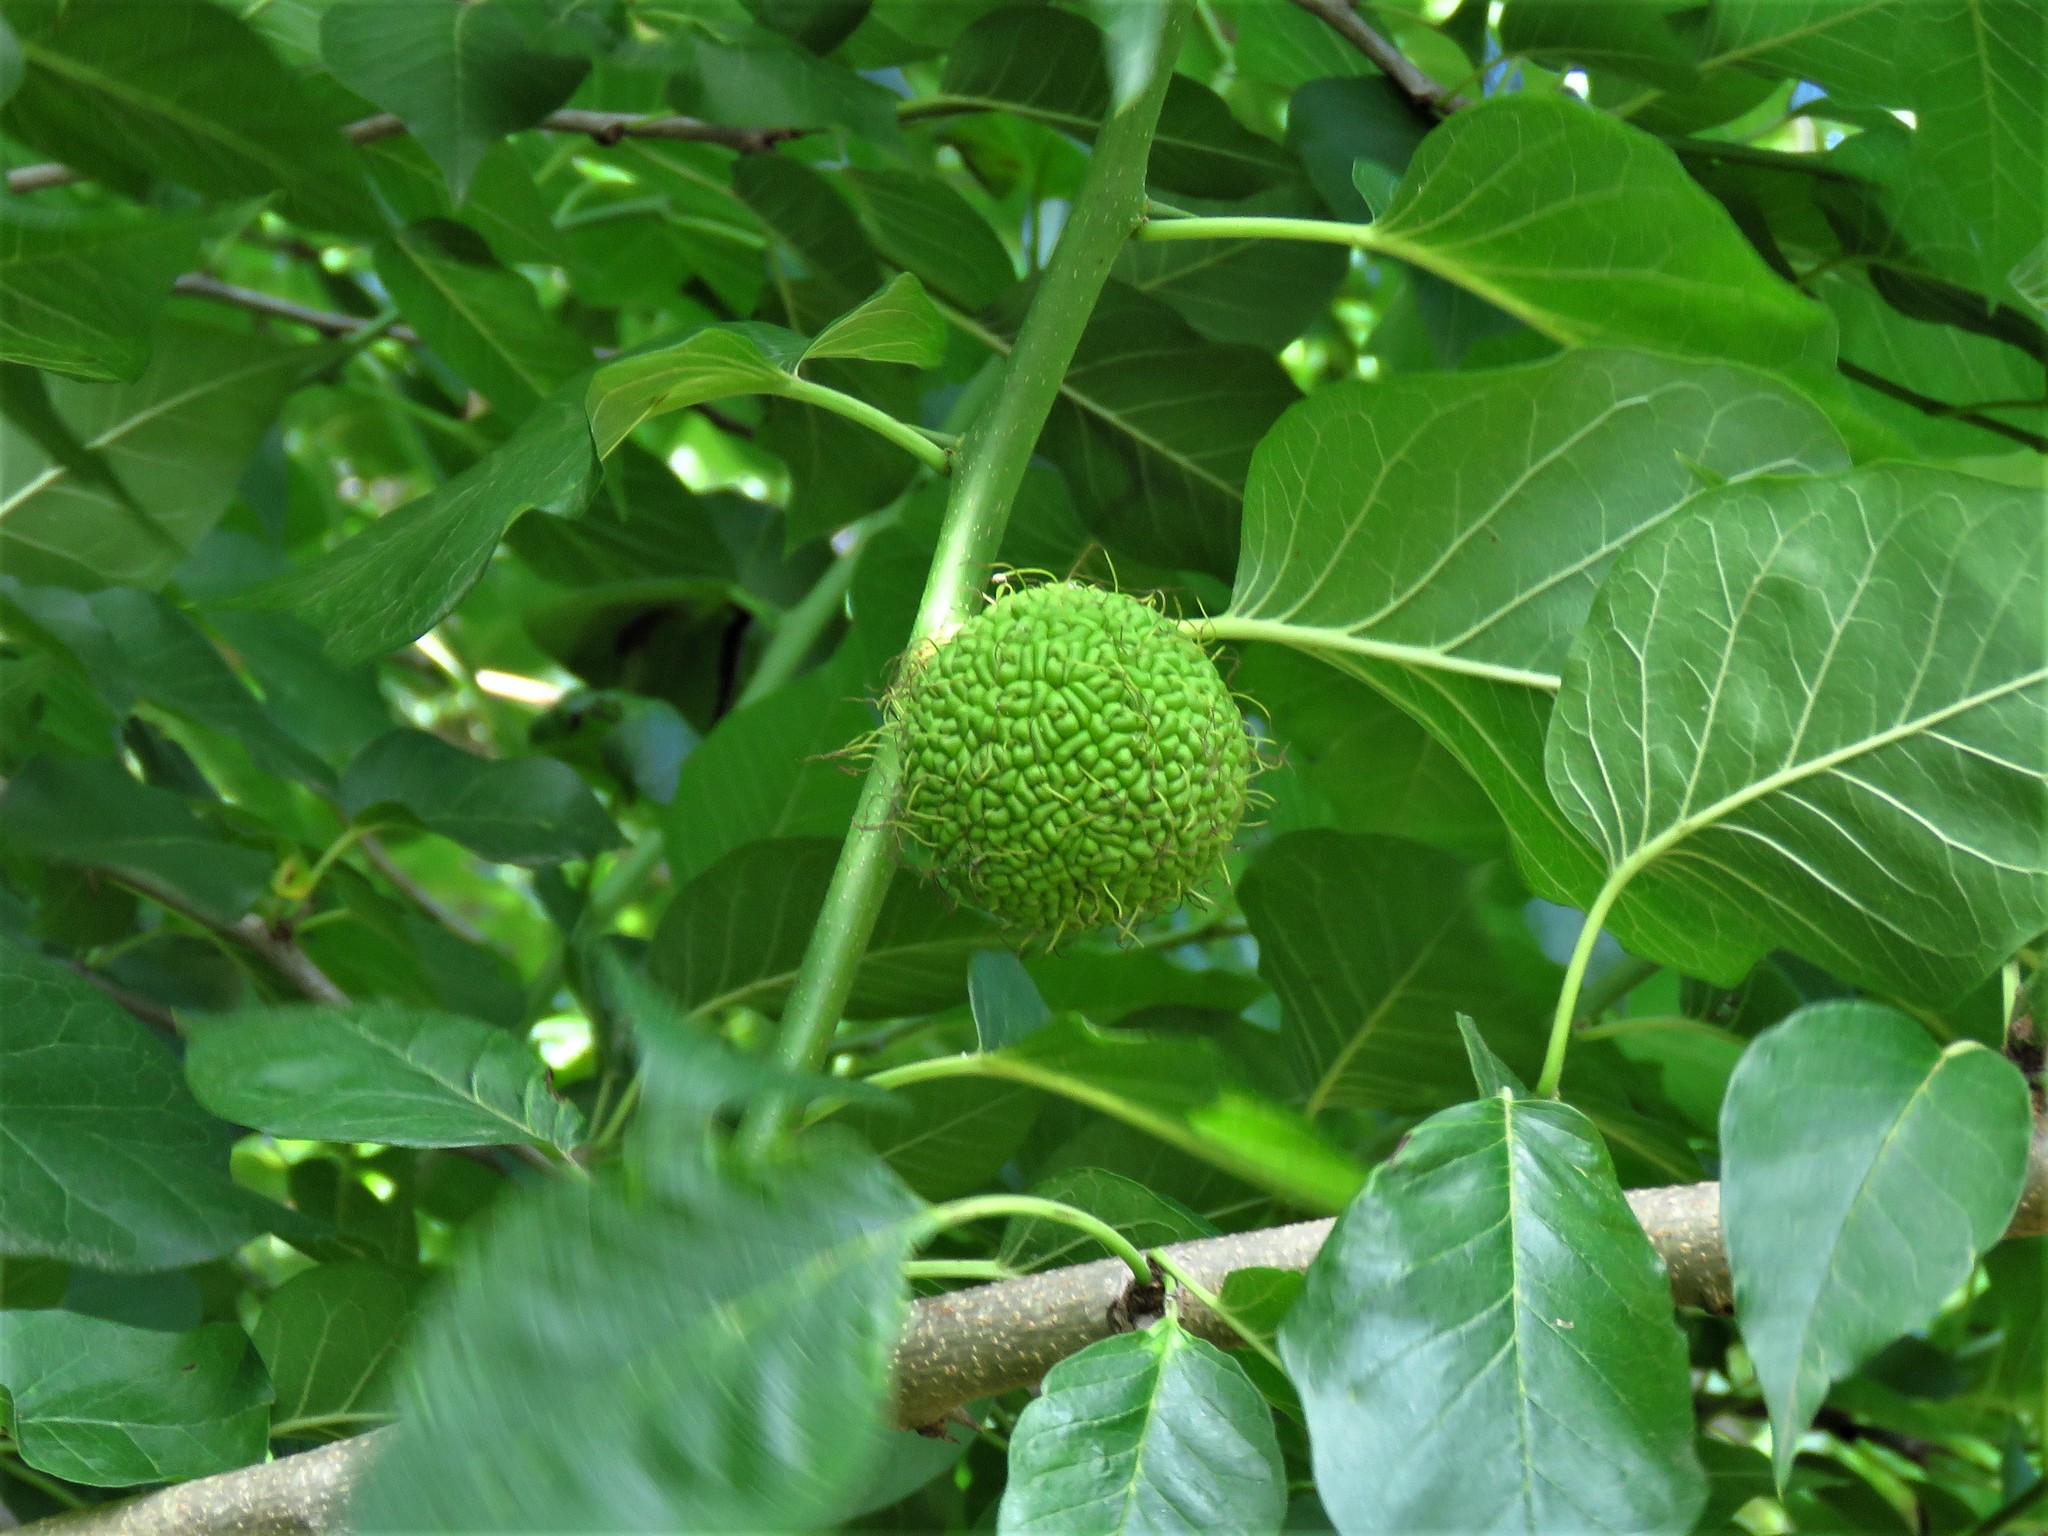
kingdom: Plantae
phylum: Tracheophyta
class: Magnoliopsida
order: Rosales
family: Moraceae
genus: Maclura
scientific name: Maclura pomifera
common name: Osage-orange
